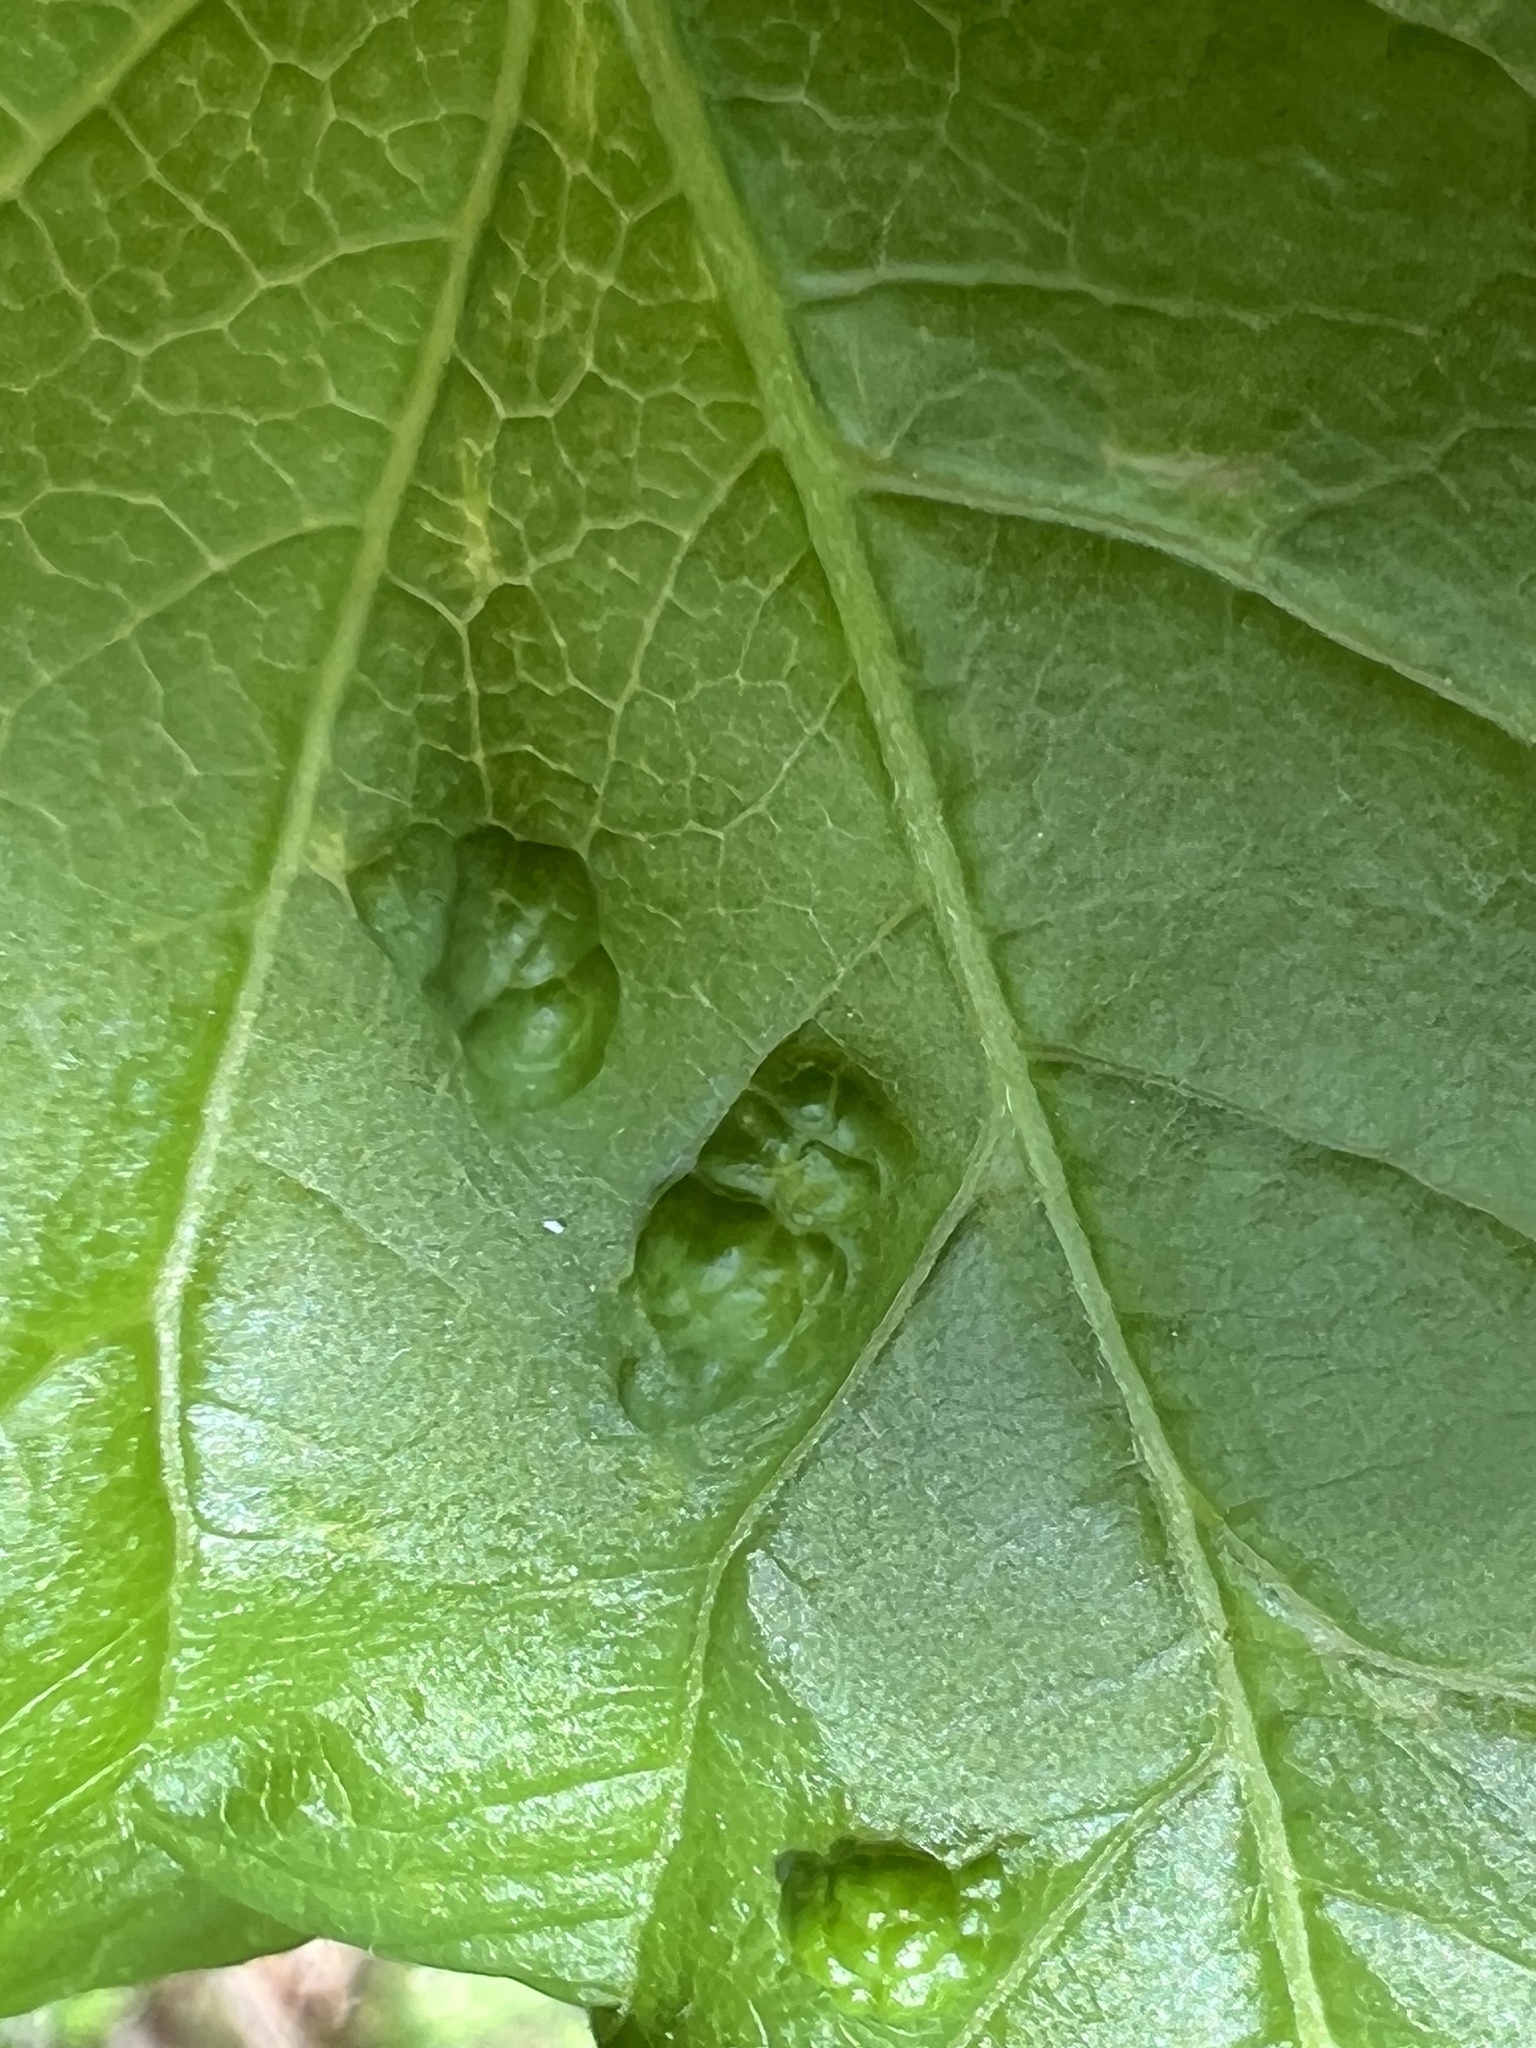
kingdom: Animalia
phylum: Arthropoda
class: Arachnida
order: Trombidiformes
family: Eriophyidae
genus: Aceria
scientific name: Aceria
